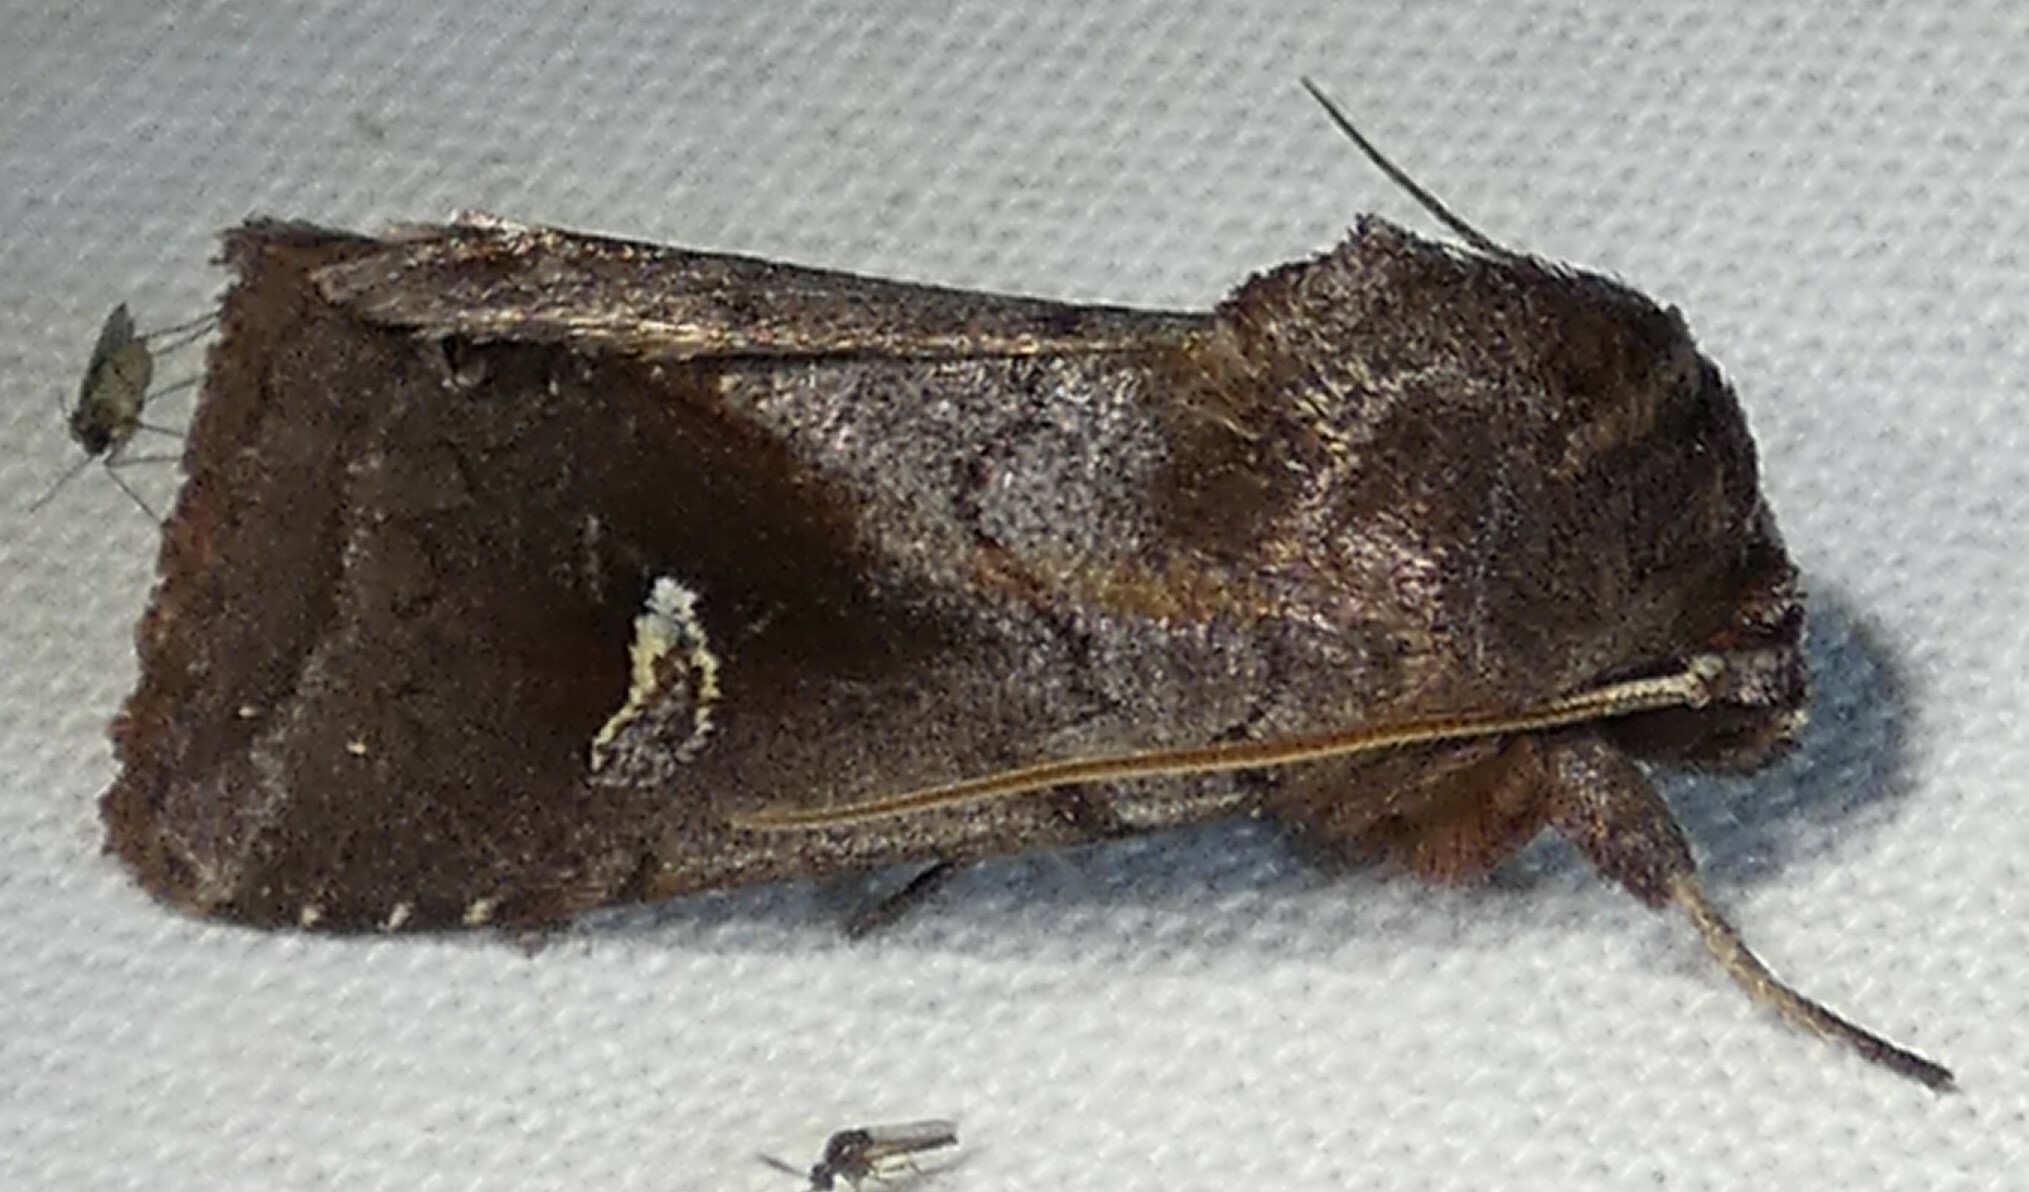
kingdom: Animalia
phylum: Arthropoda
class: Insecta
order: Lepidoptera
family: Noctuidae
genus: Iodopepla
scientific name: Iodopepla ualbum
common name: White-eyed borer moth
